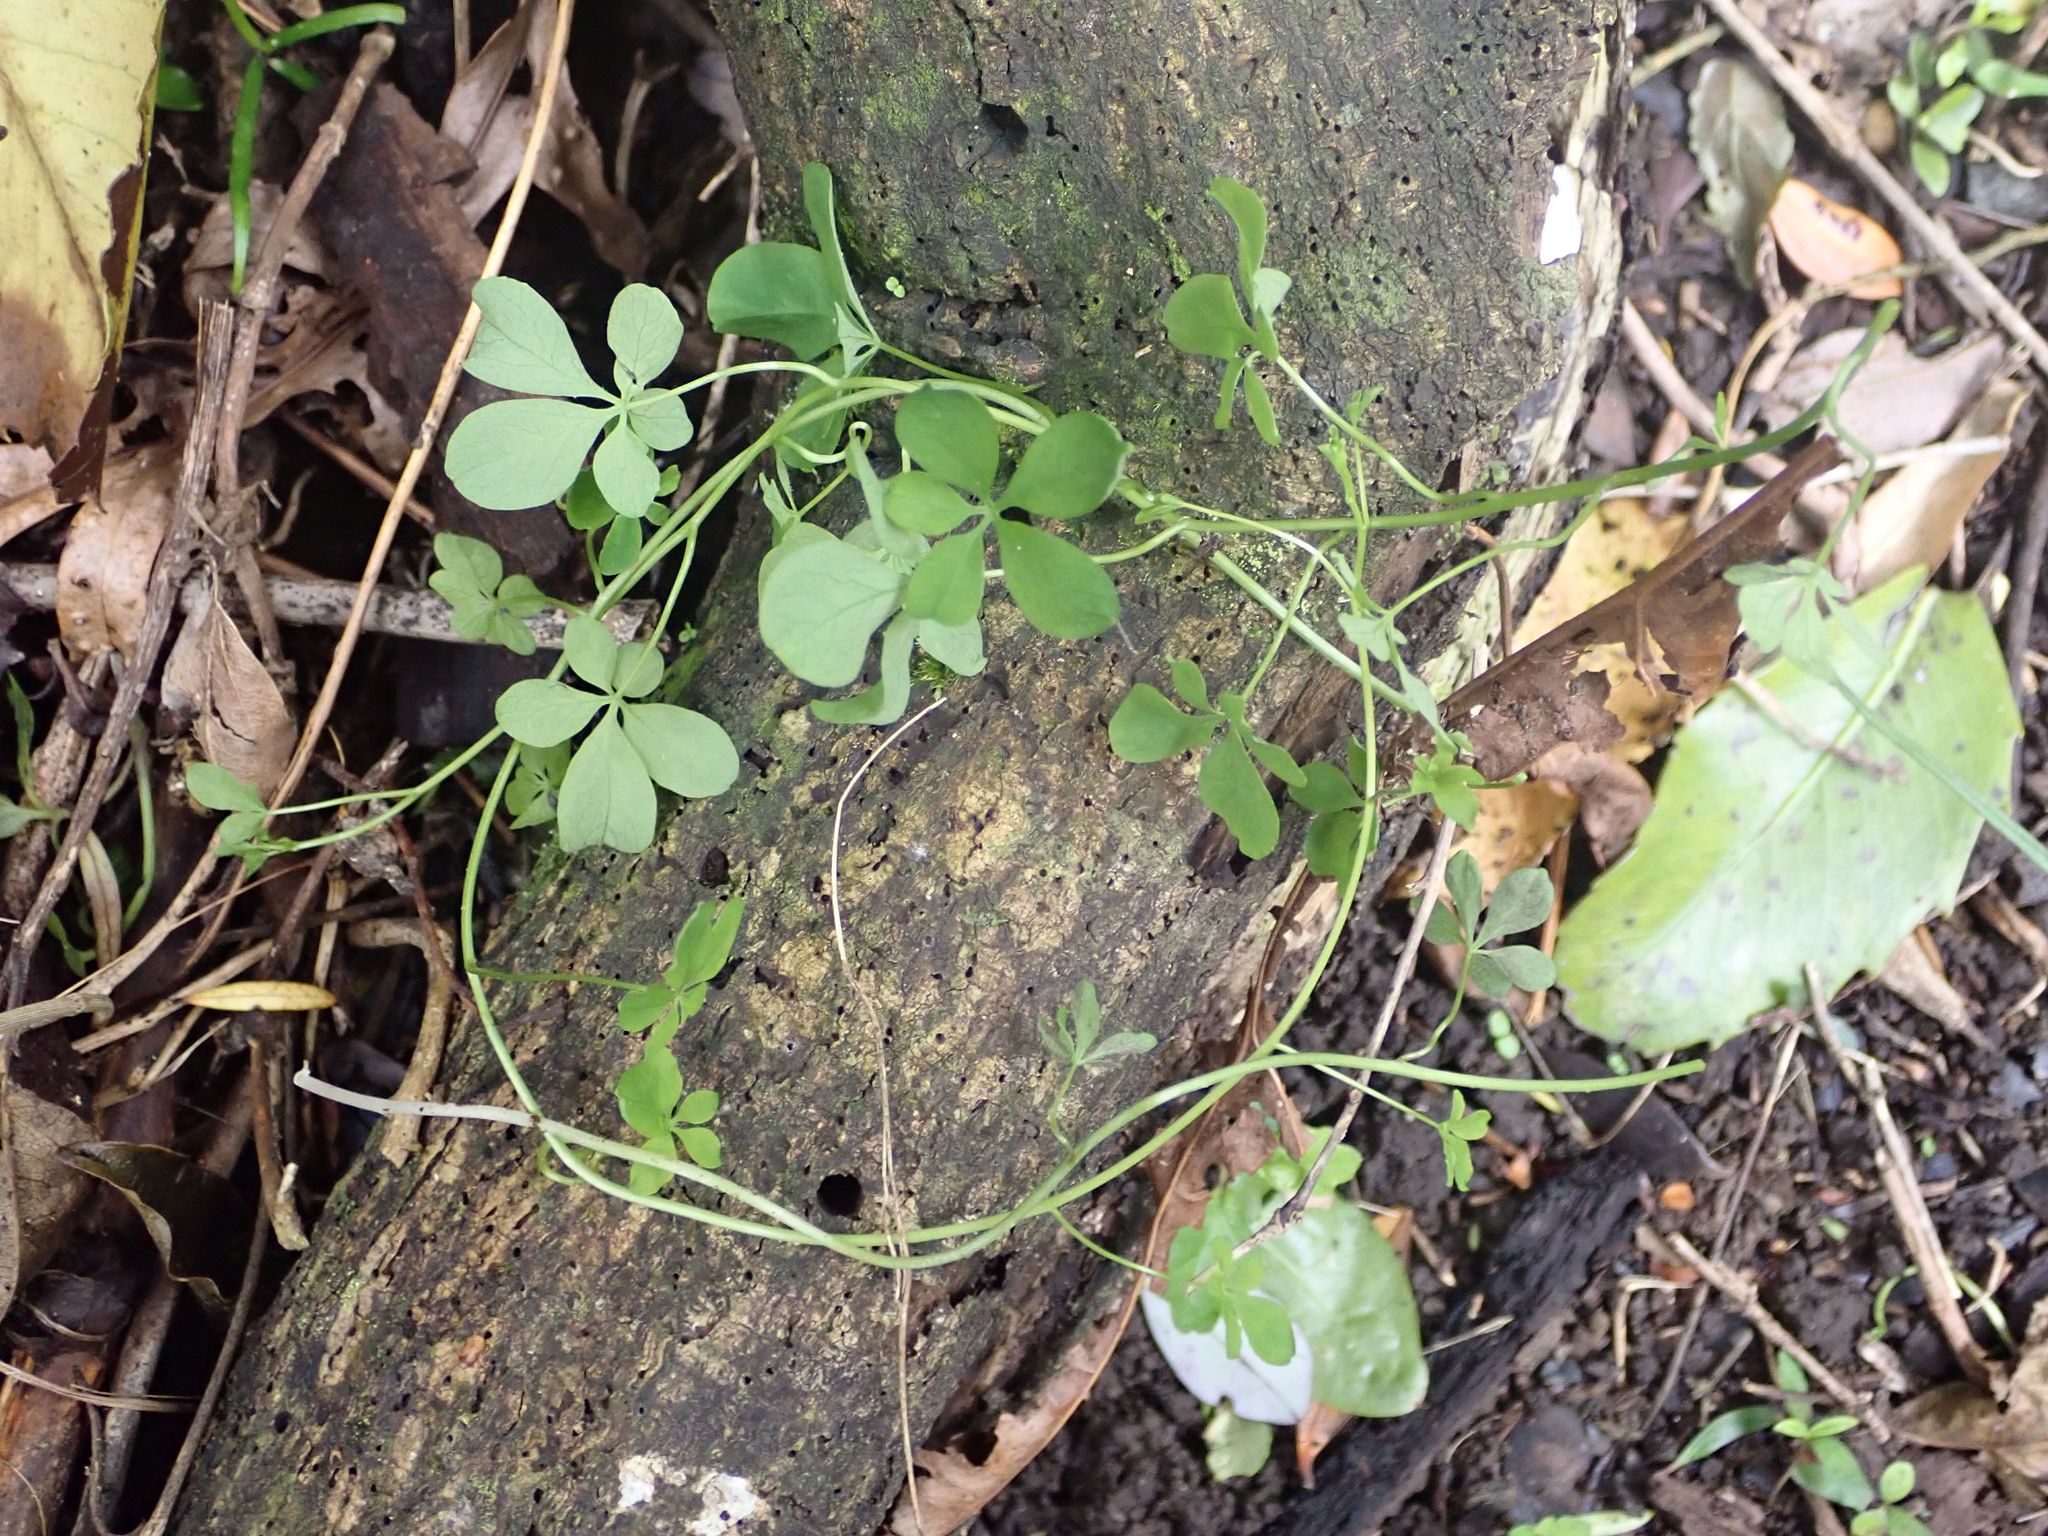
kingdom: Plantae
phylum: Tracheophyta
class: Magnoliopsida
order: Brassicales
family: Tropaeolaceae
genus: Tropaeolum
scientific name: Tropaeolum speciosum
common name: Flame nasturtium
